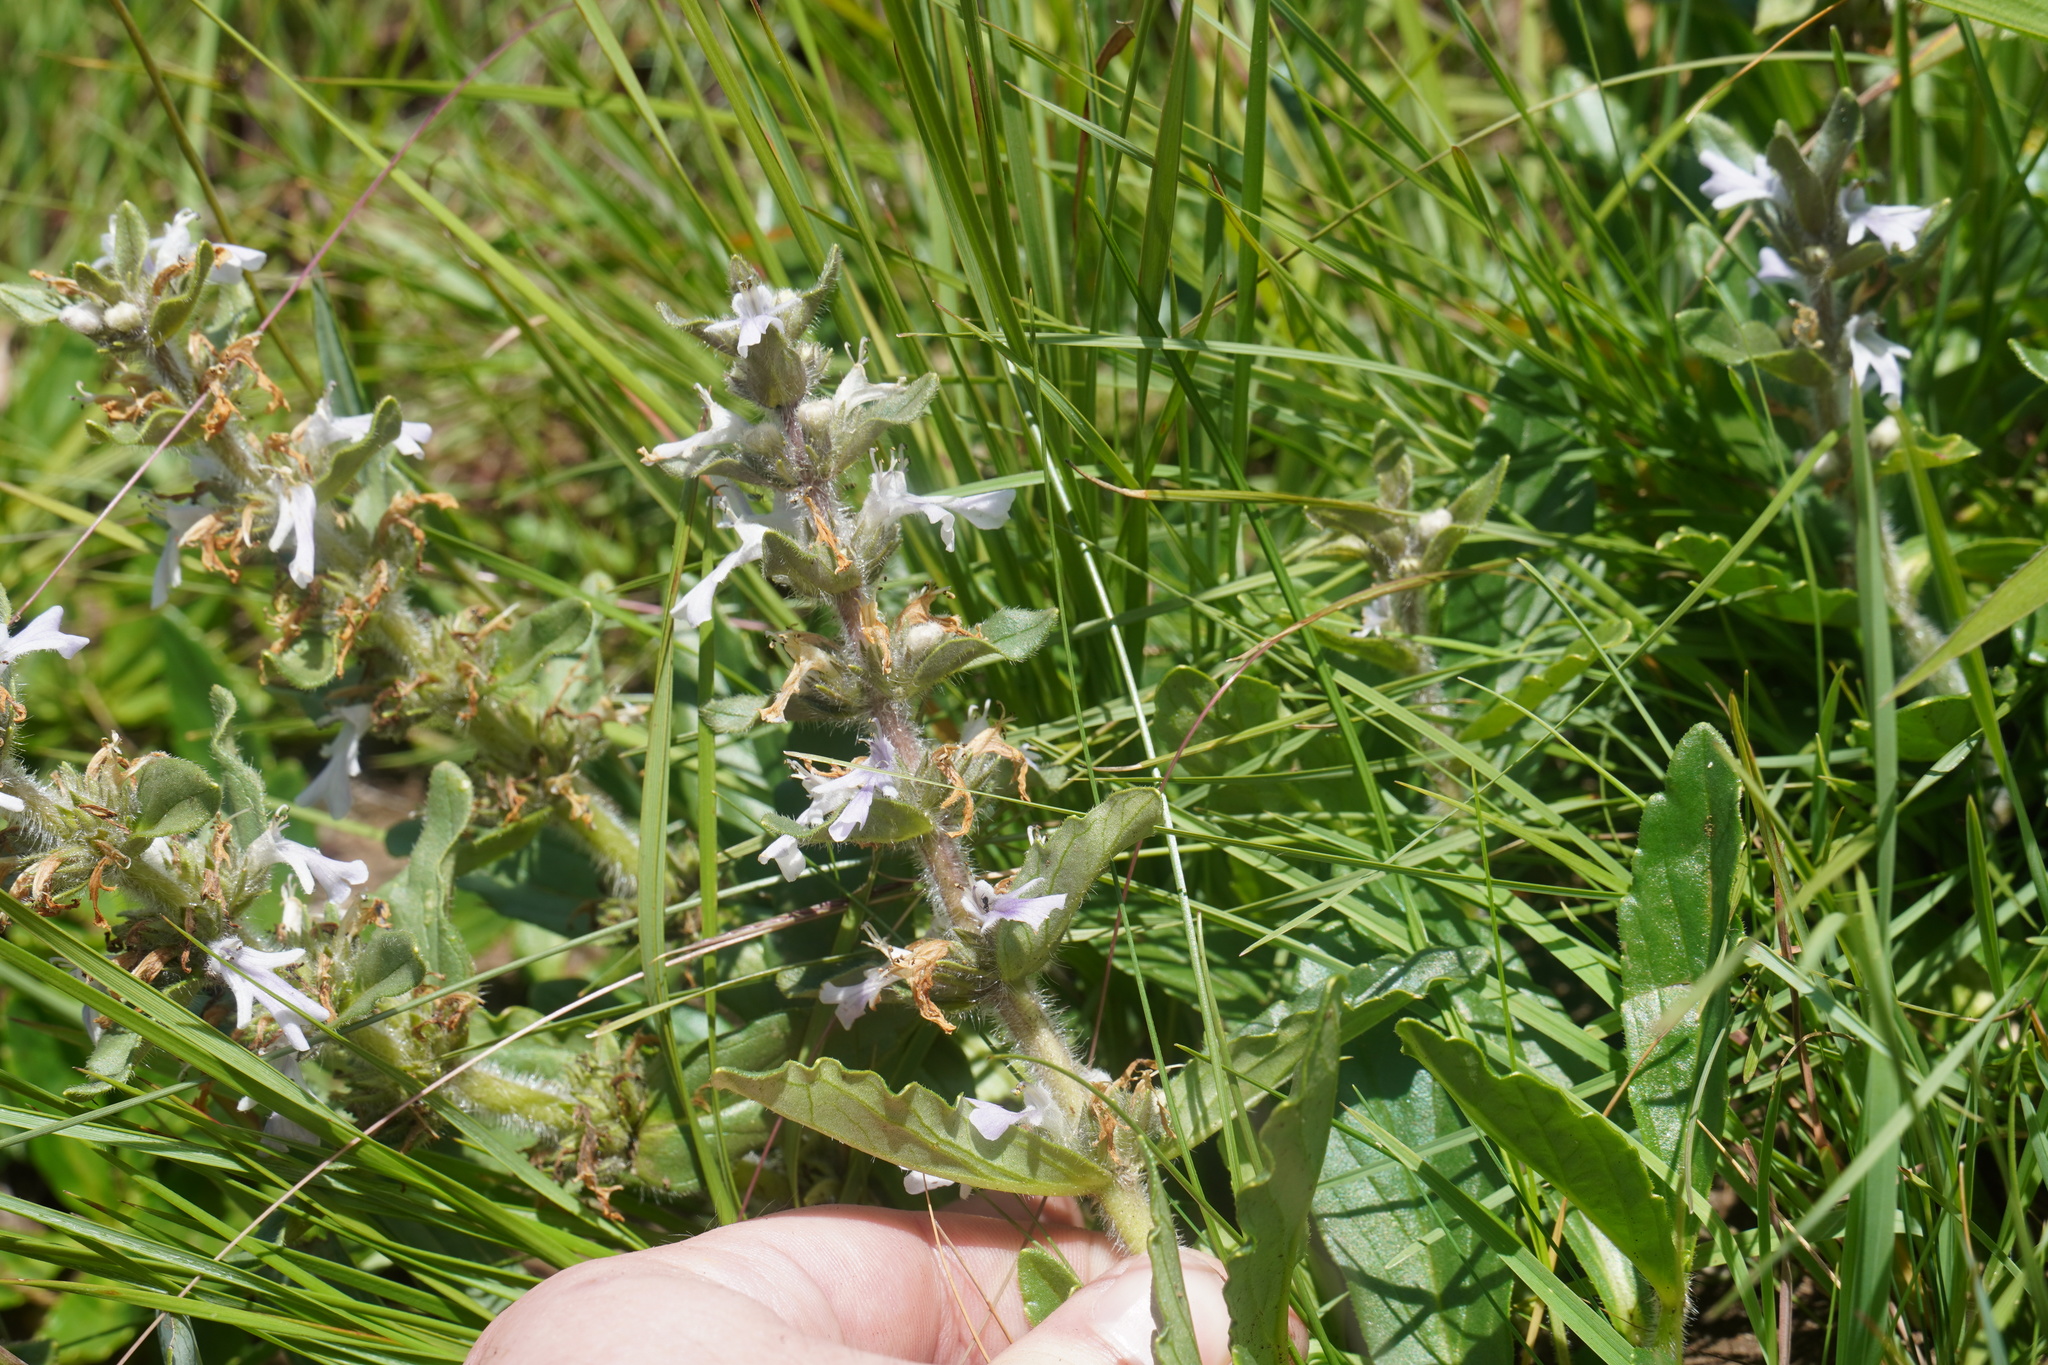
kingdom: Plantae
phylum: Tracheophyta
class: Magnoliopsida
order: Lamiales
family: Lamiaceae
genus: Ajuga
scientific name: Ajuga ophrydis
